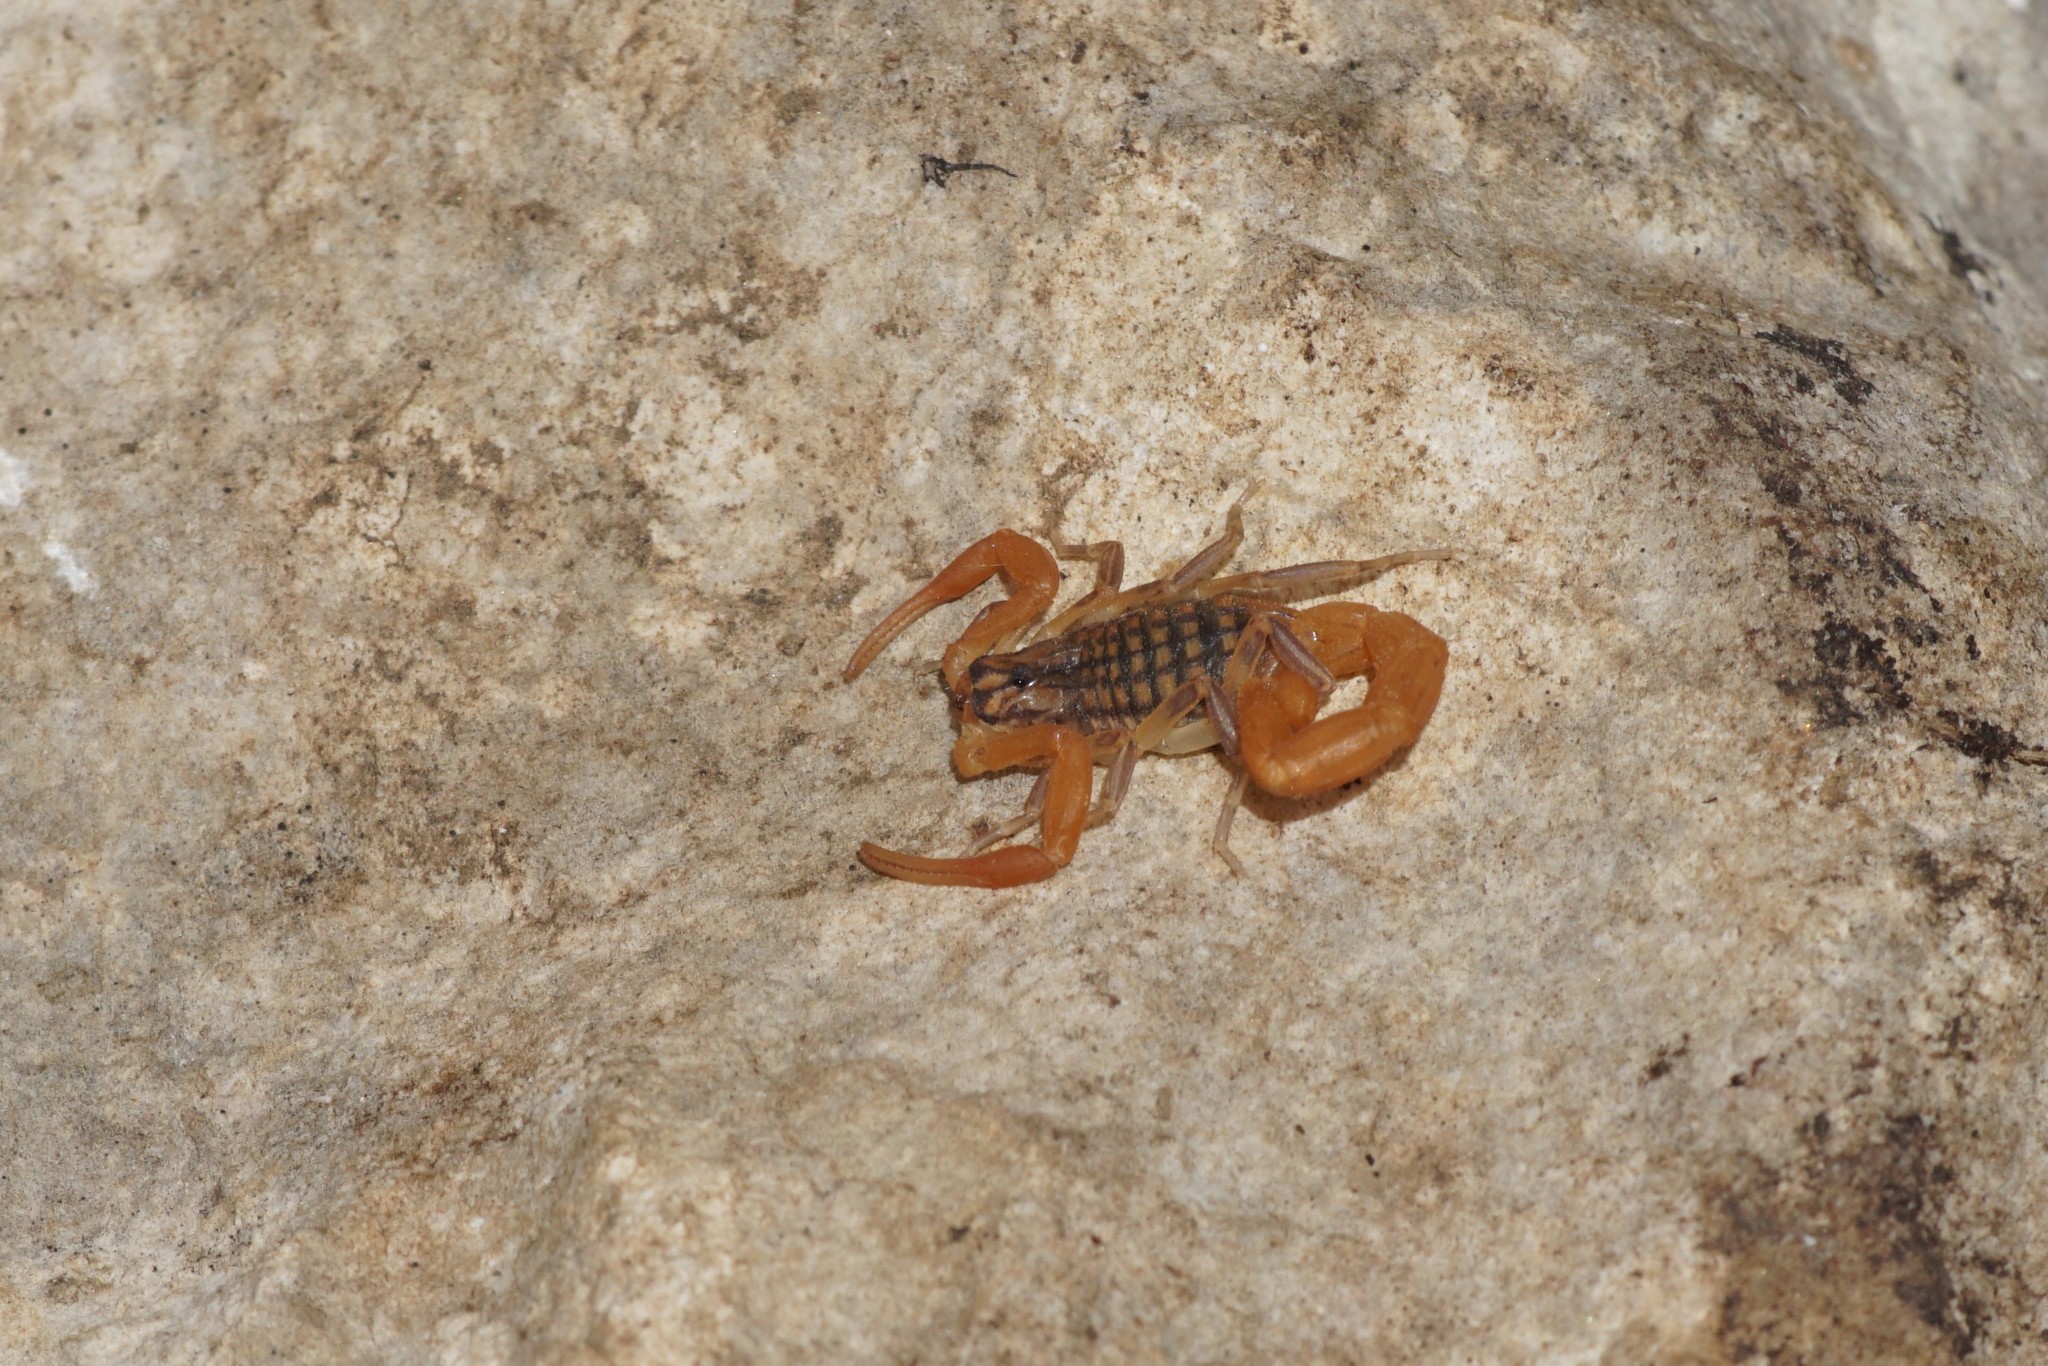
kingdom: Animalia
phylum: Arthropoda
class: Arachnida
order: Scorpiones
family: Buthidae
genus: Aegaeobuthus
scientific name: Aegaeobuthus gibbosus
